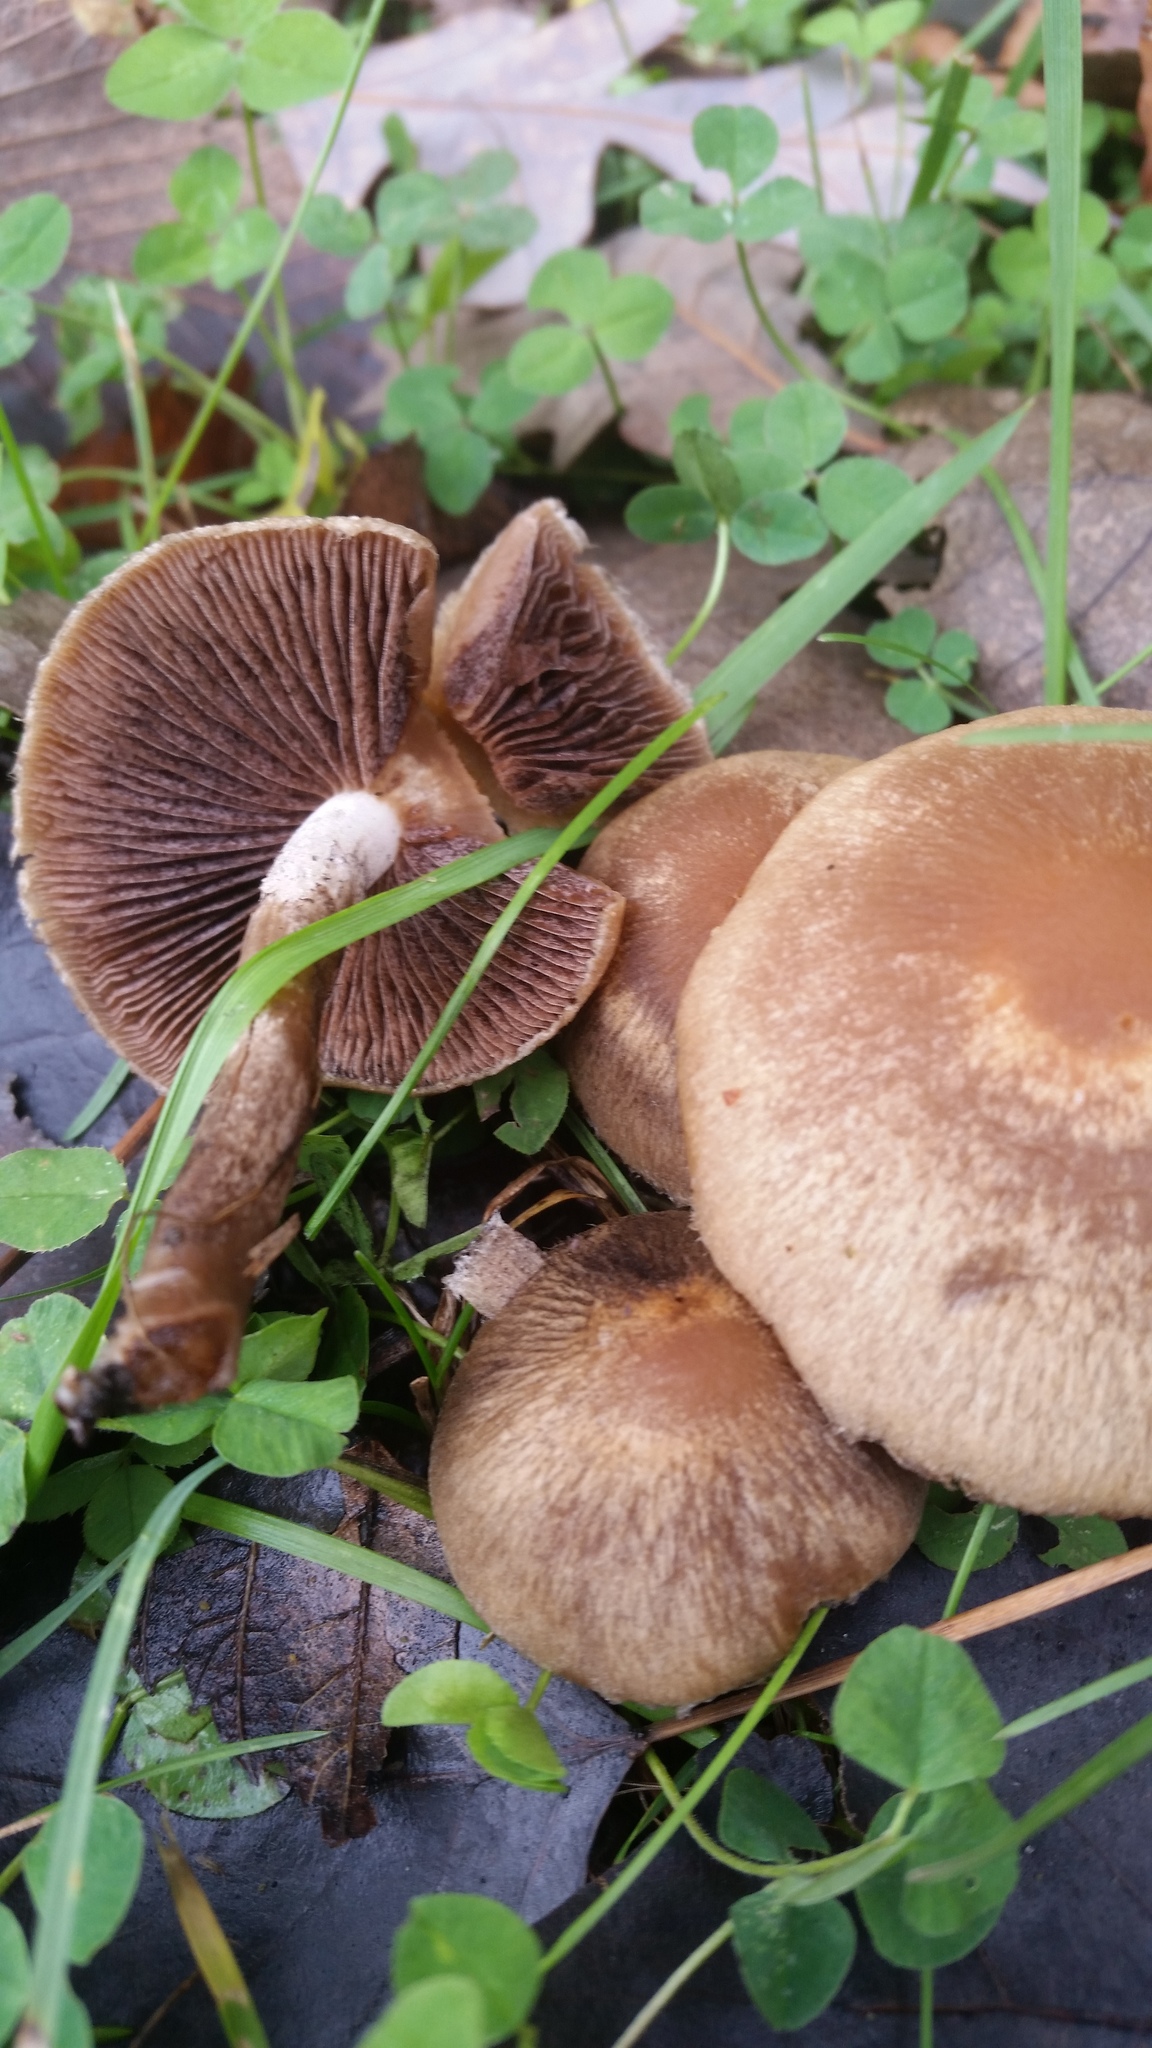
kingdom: Fungi
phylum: Basidiomycota
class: Agaricomycetes
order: Agaricales
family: Psathyrellaceae
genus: Typhrasa
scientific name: Typhrasa gossypina
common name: Wrinkled psathyrella
